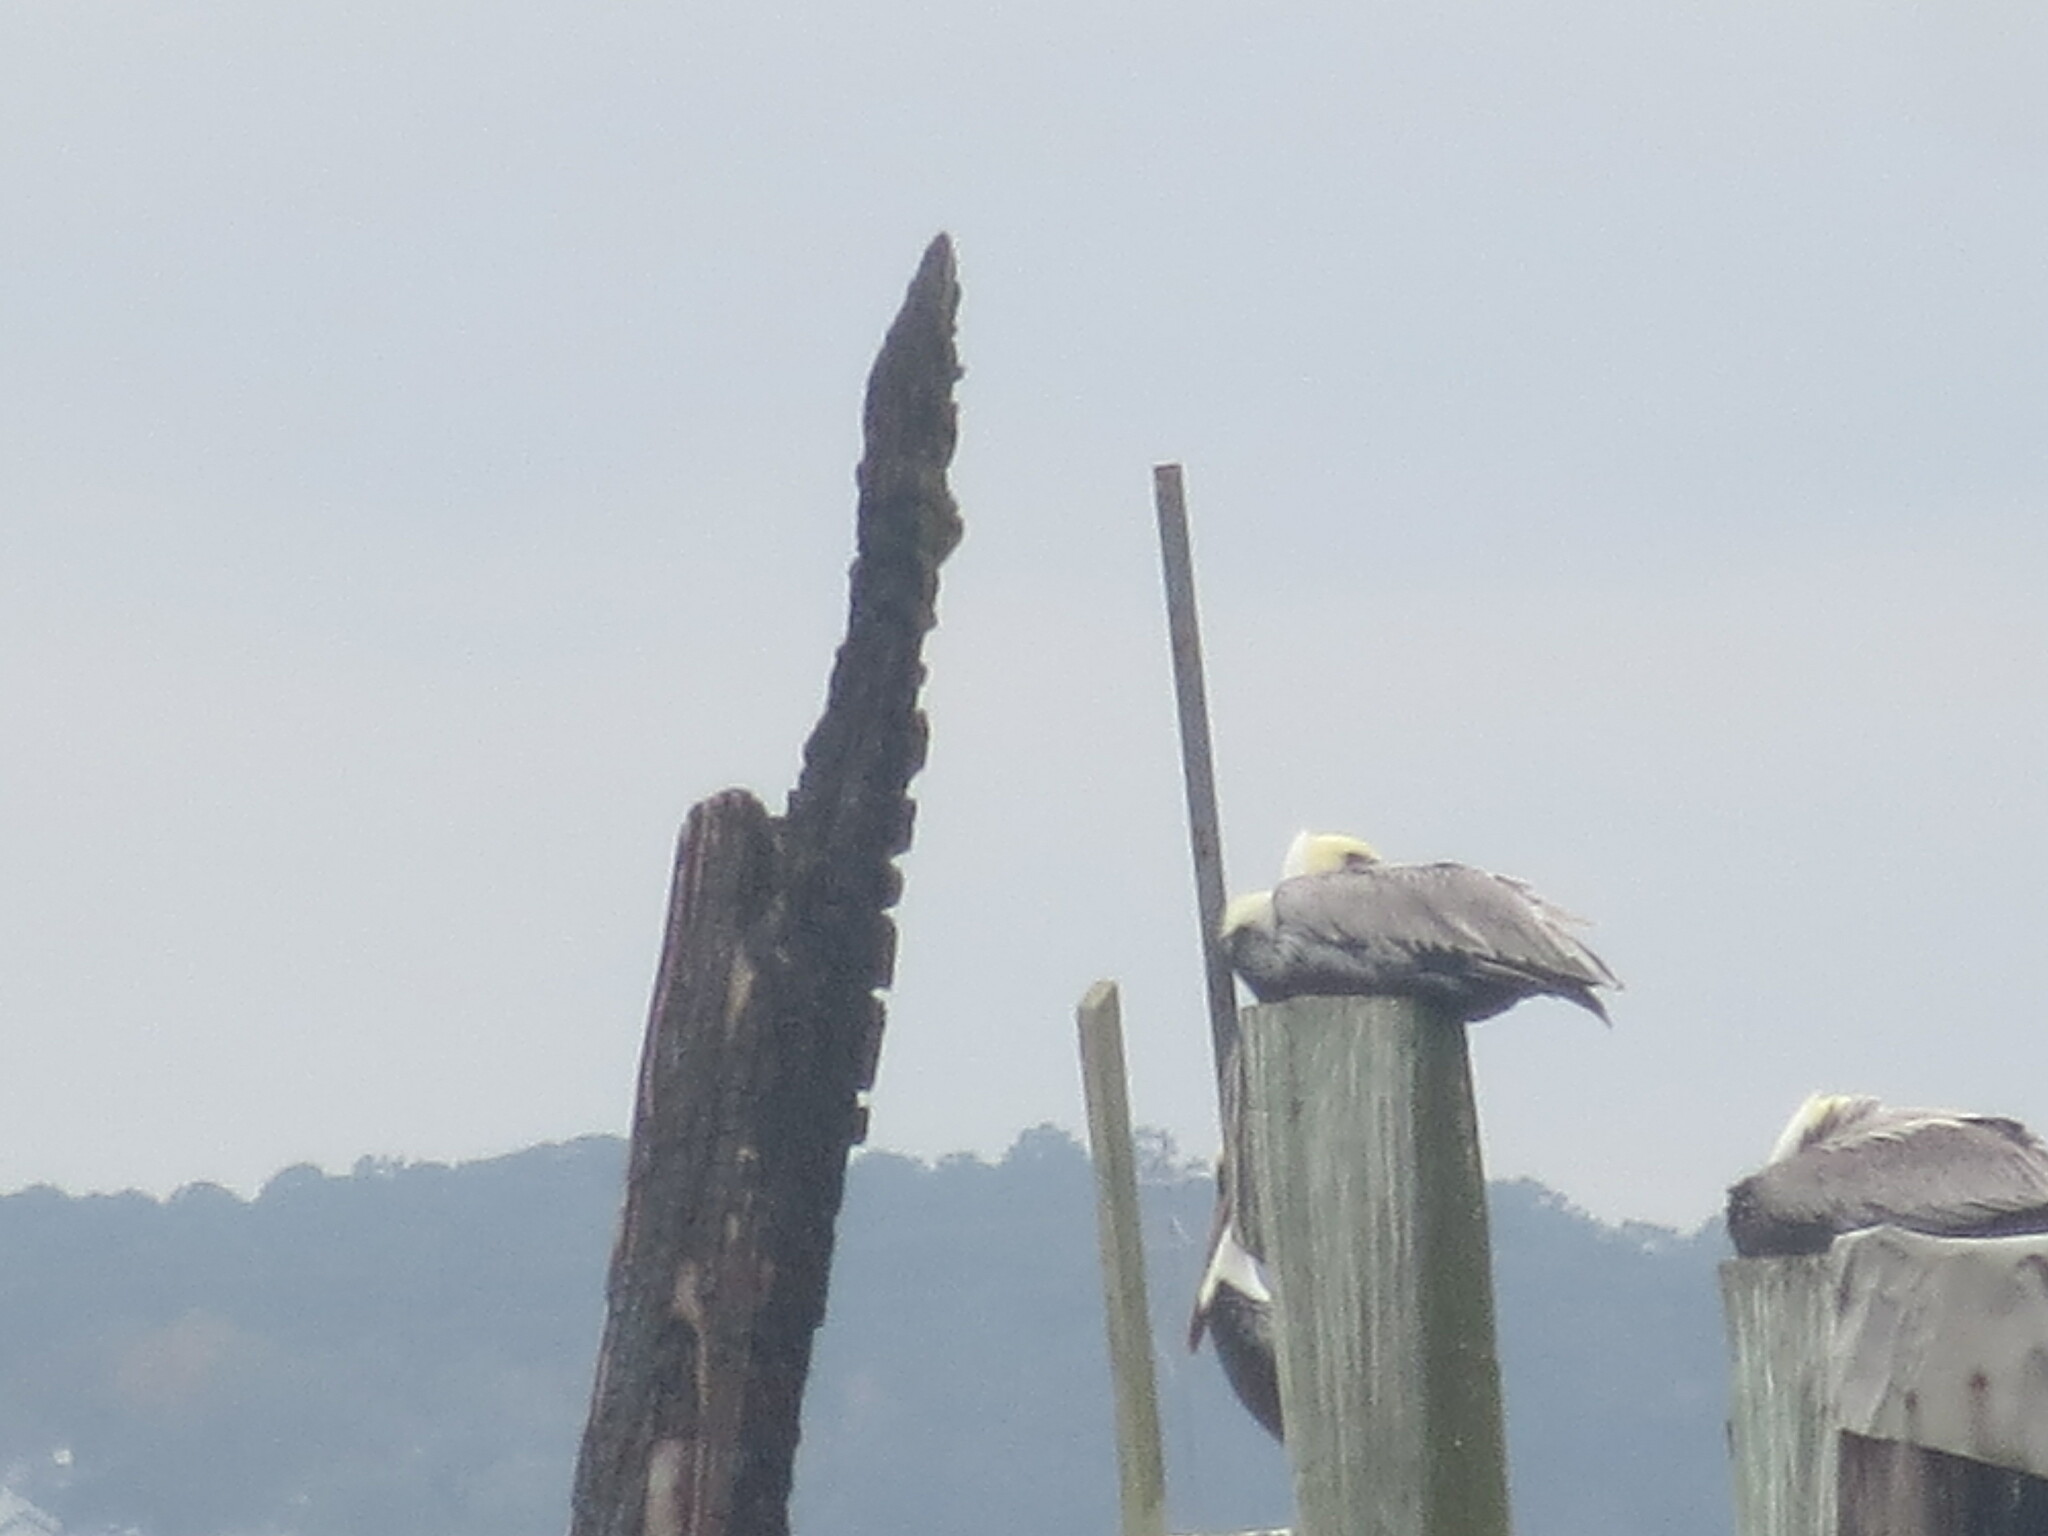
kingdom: Animalia
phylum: Chordata
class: Aves
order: Pelecaniformes
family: Pelecanidae
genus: Pelecanus
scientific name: Pelecanus occidentalis
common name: Brown pelican
